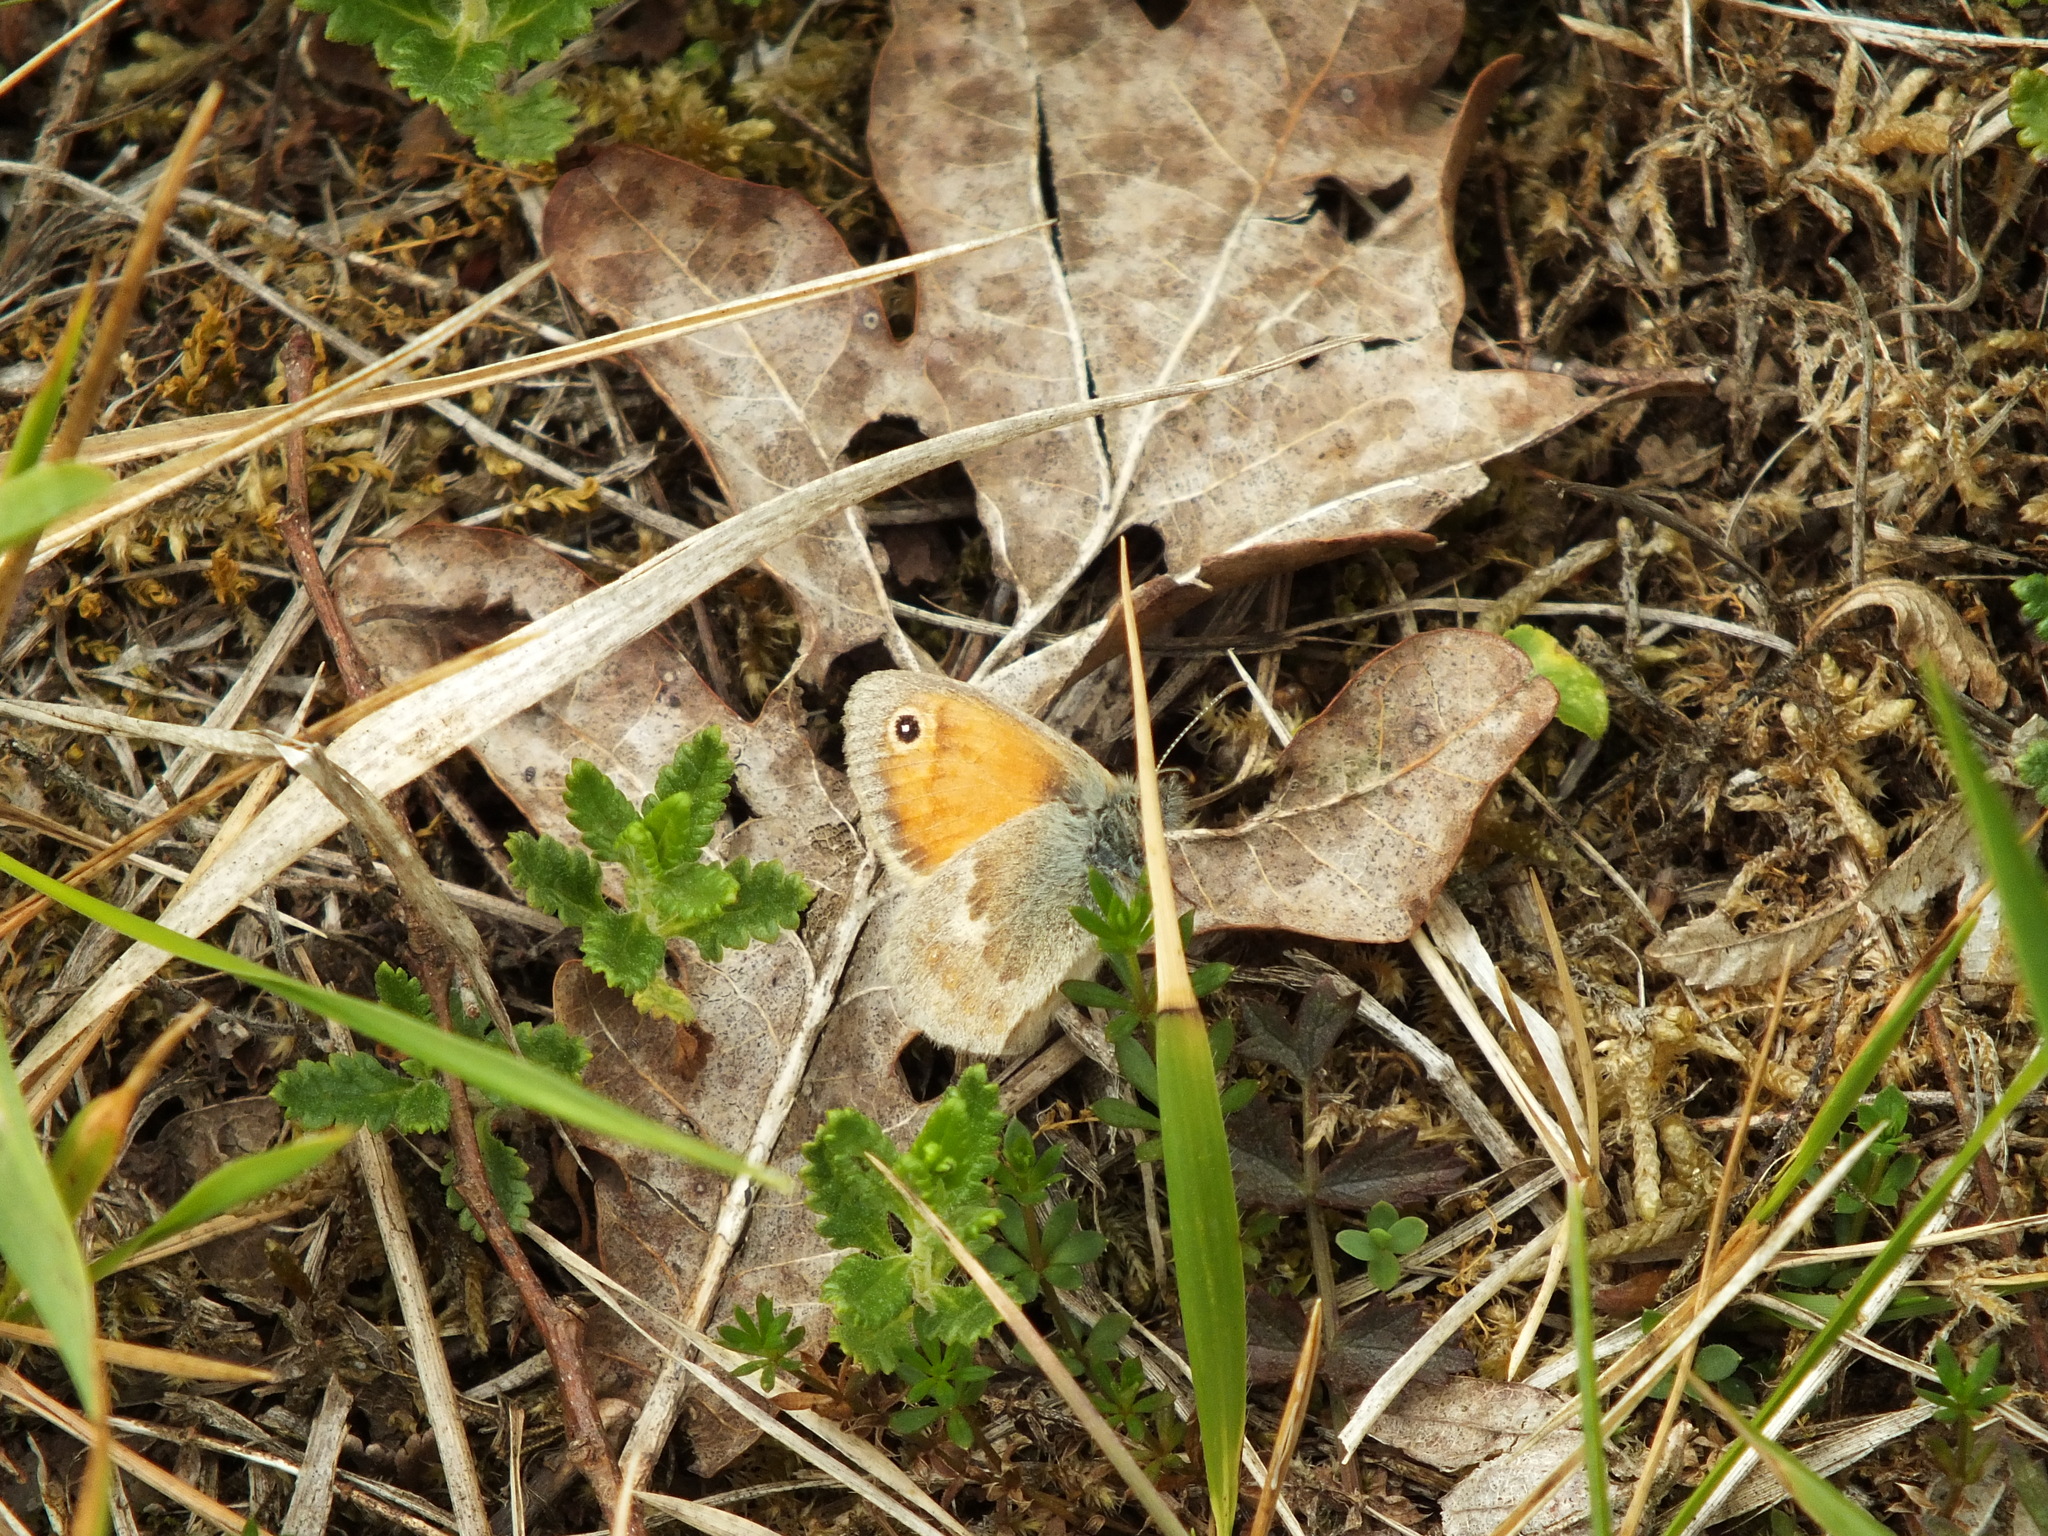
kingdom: Animalia
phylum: Arthropoda
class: Insecta
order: Lepidoptera
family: Nymphalidae
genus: Coenonympha
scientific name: Coenonympha pamphilus
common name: Small heath
